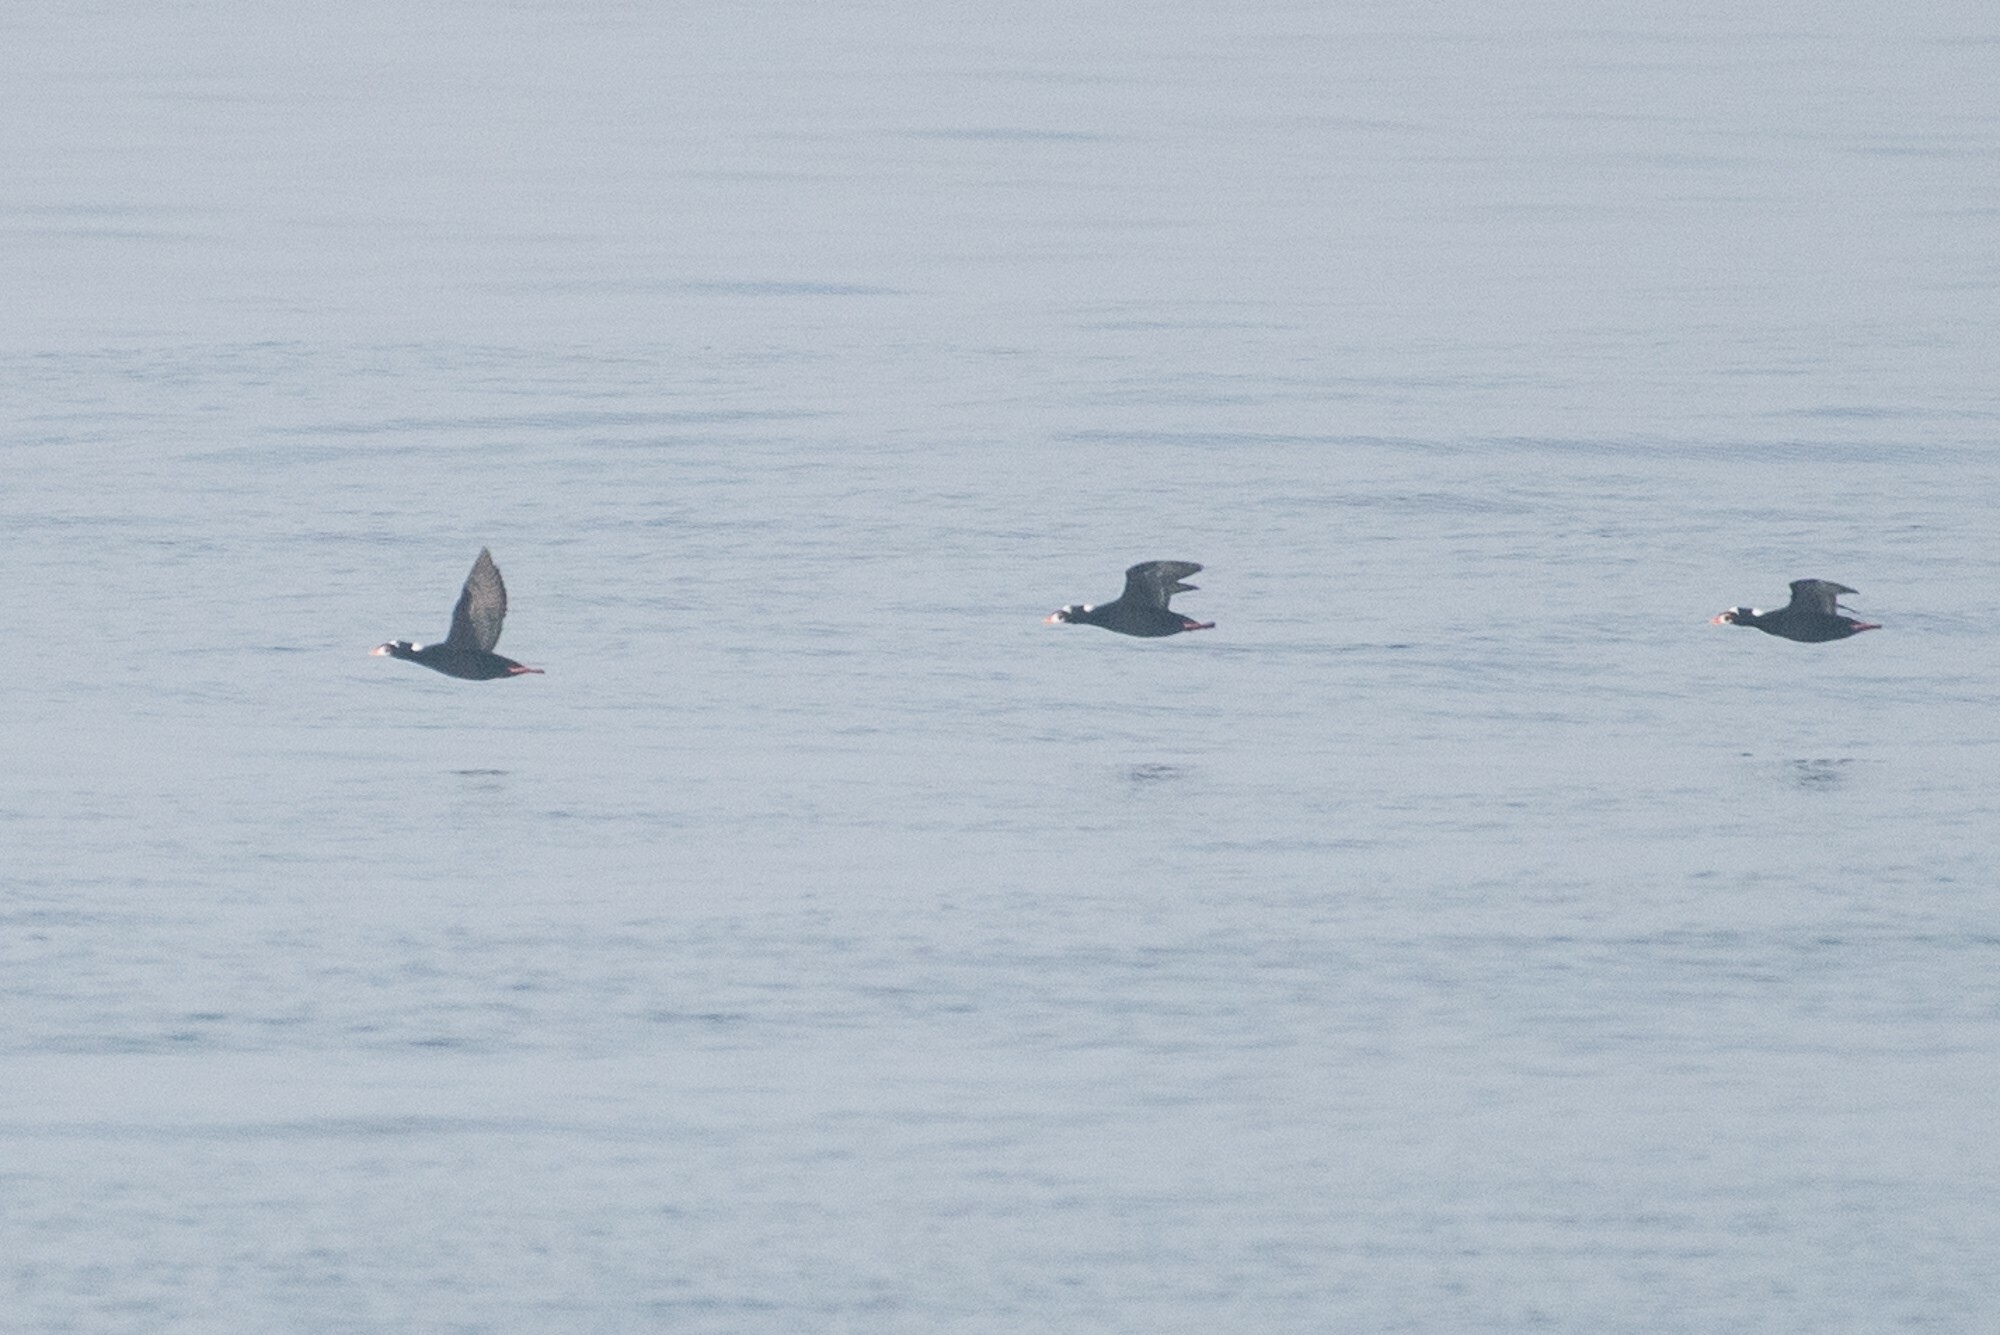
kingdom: Animalia
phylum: Chordata
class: Aves
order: Anseriformes
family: Anatidae
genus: Melanitta
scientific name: Melanitta perspicillata
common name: Surf scoter
